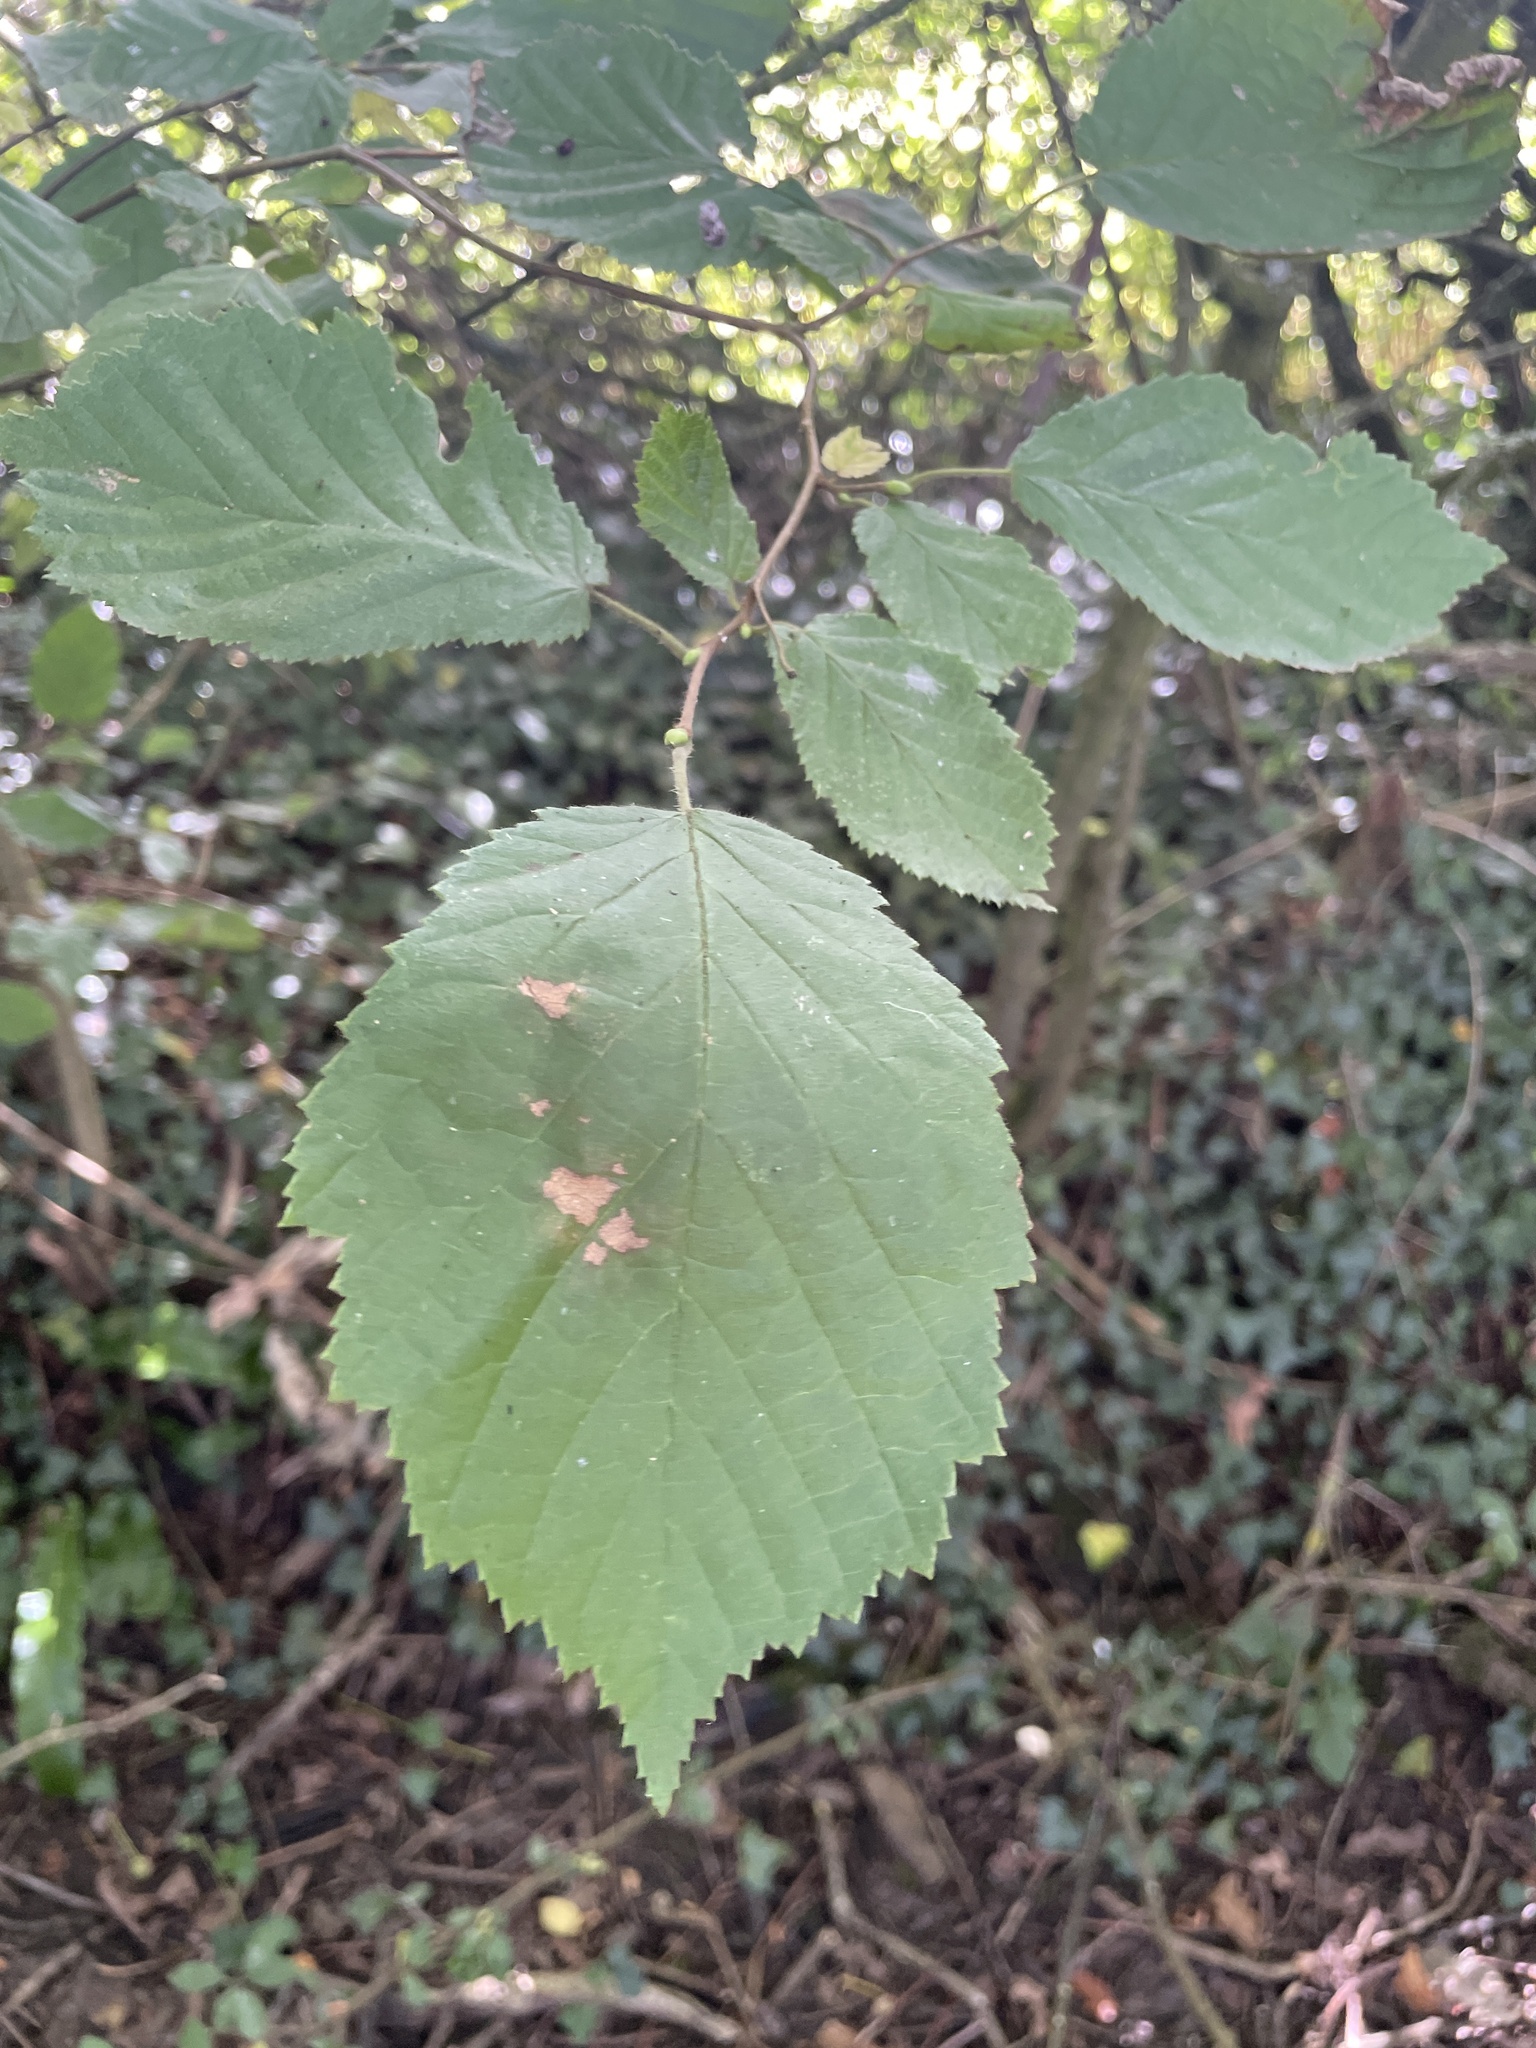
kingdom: Plantae
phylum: Tracheophyta
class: Magnoliopsida
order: Fagales
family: Betulaceae
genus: Corylus
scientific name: Corylus avellana
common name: European hazel
